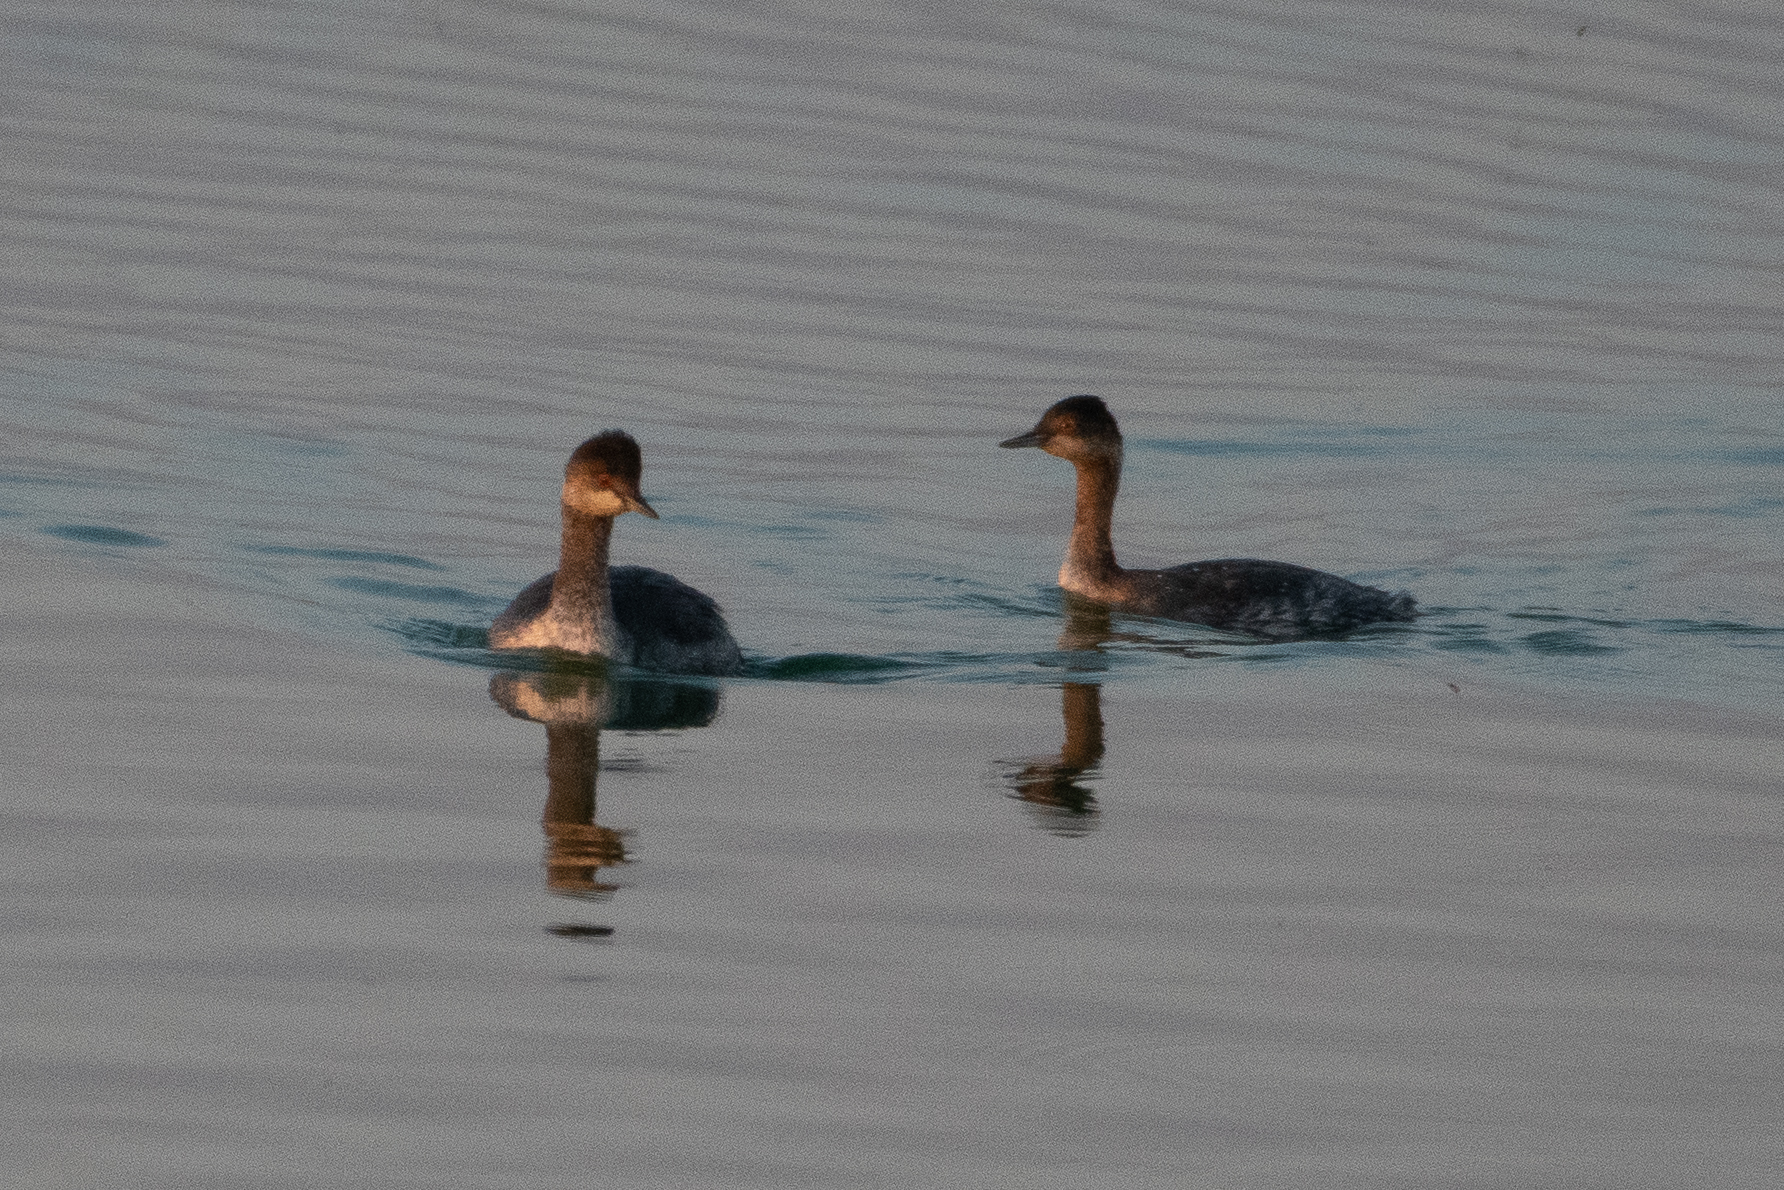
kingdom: Animalia
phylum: Chordata
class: Aves
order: Podicipediformes
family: Podicipedidae
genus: Podiceps
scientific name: Podiceps nigricollis
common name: Black-necked grebe
